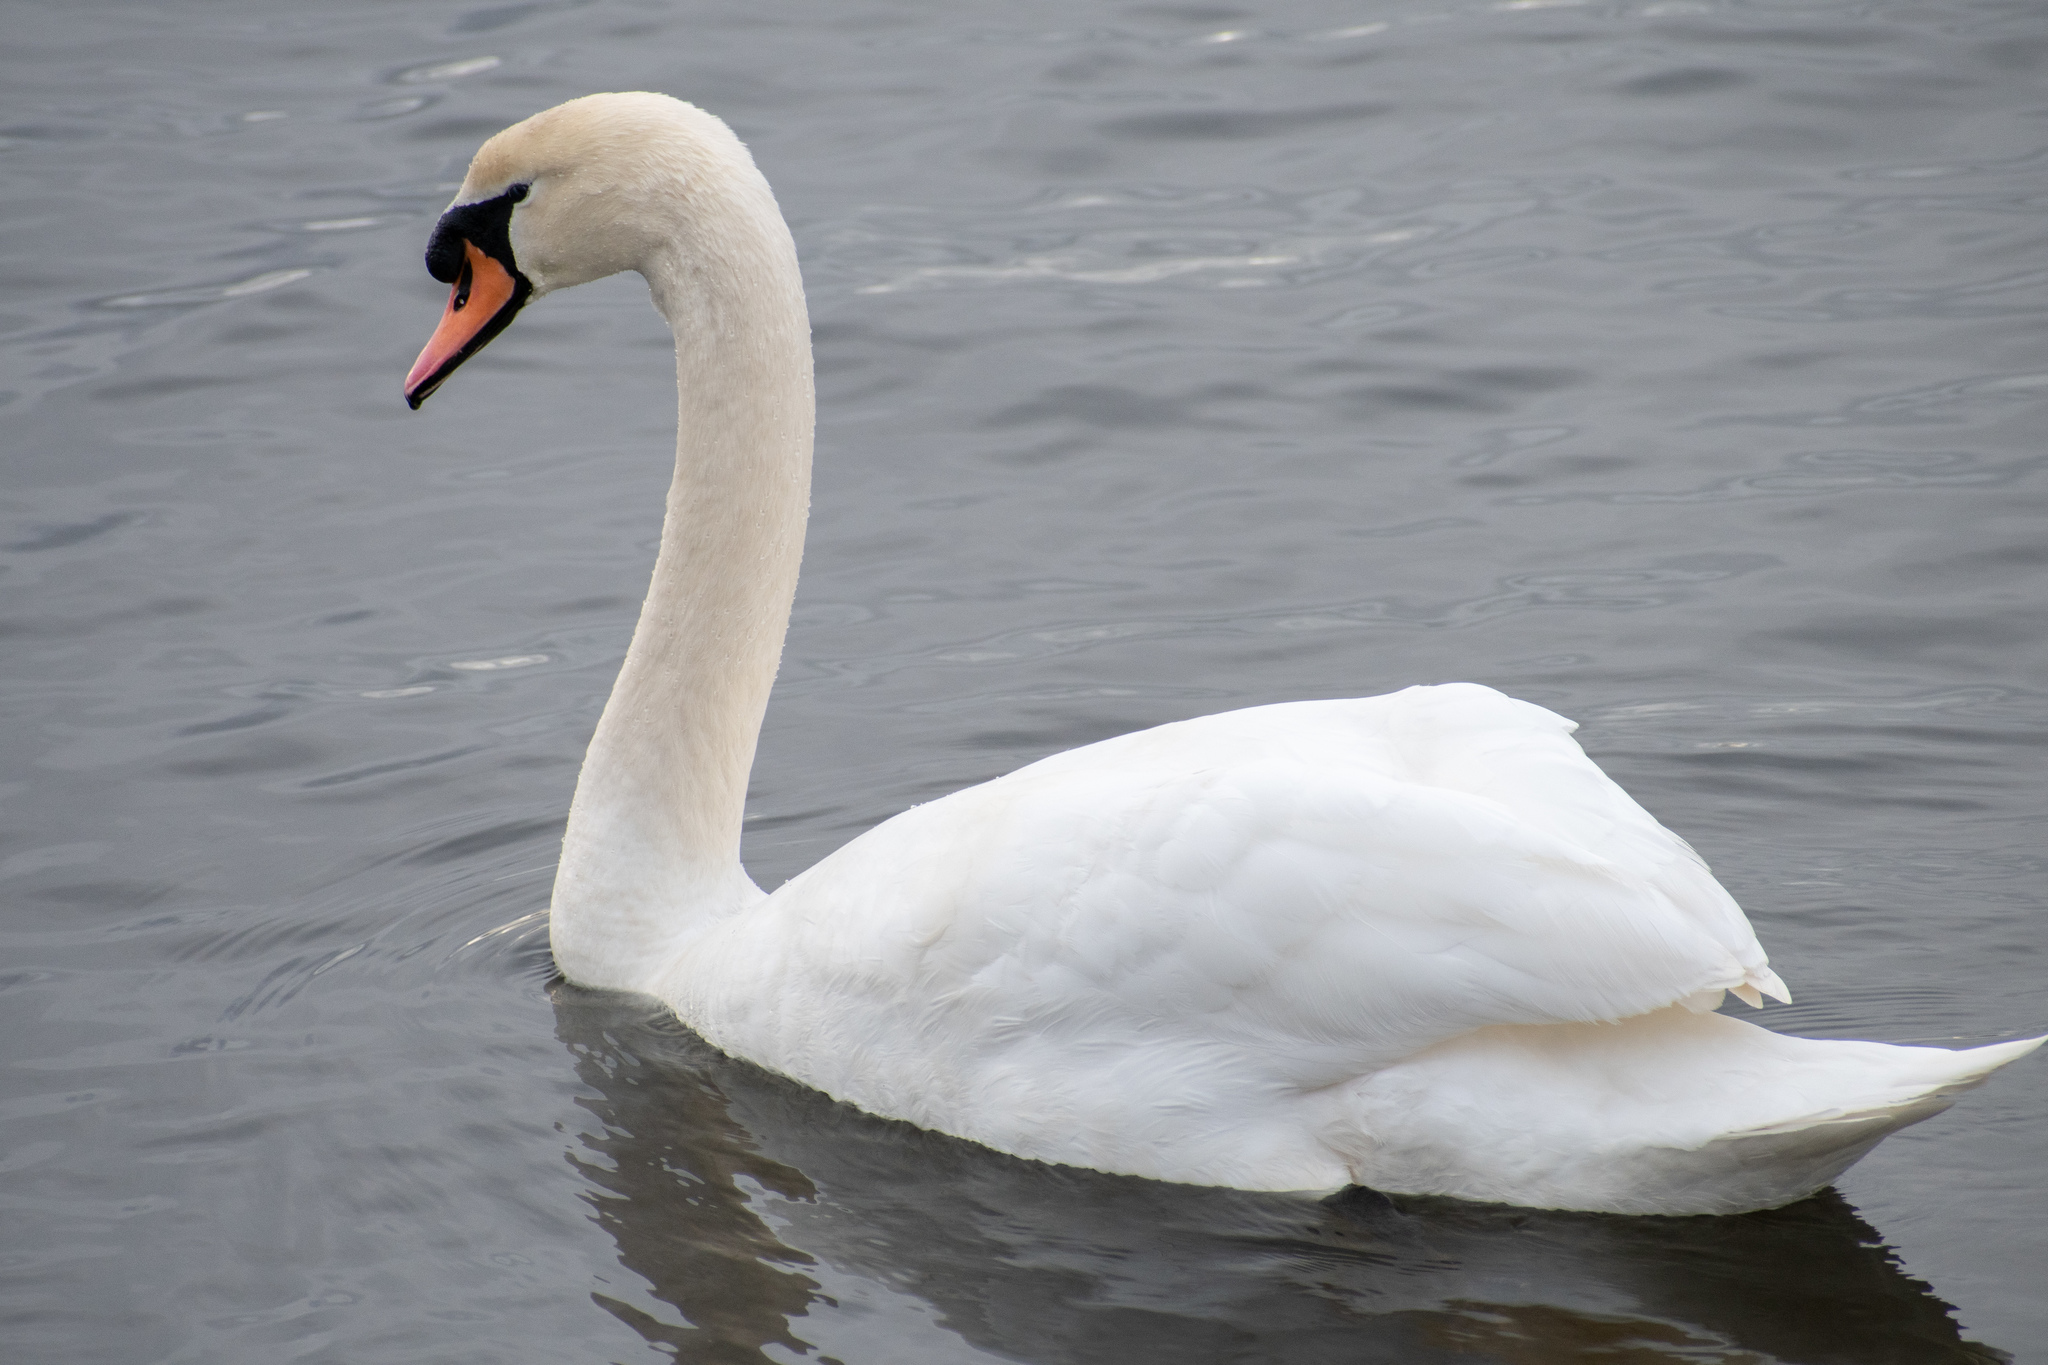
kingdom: Animalia
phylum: Chordata
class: Aves
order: Anseriformes
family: Anatidae
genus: Cygnus
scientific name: Cygnus olor
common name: Mute swan
